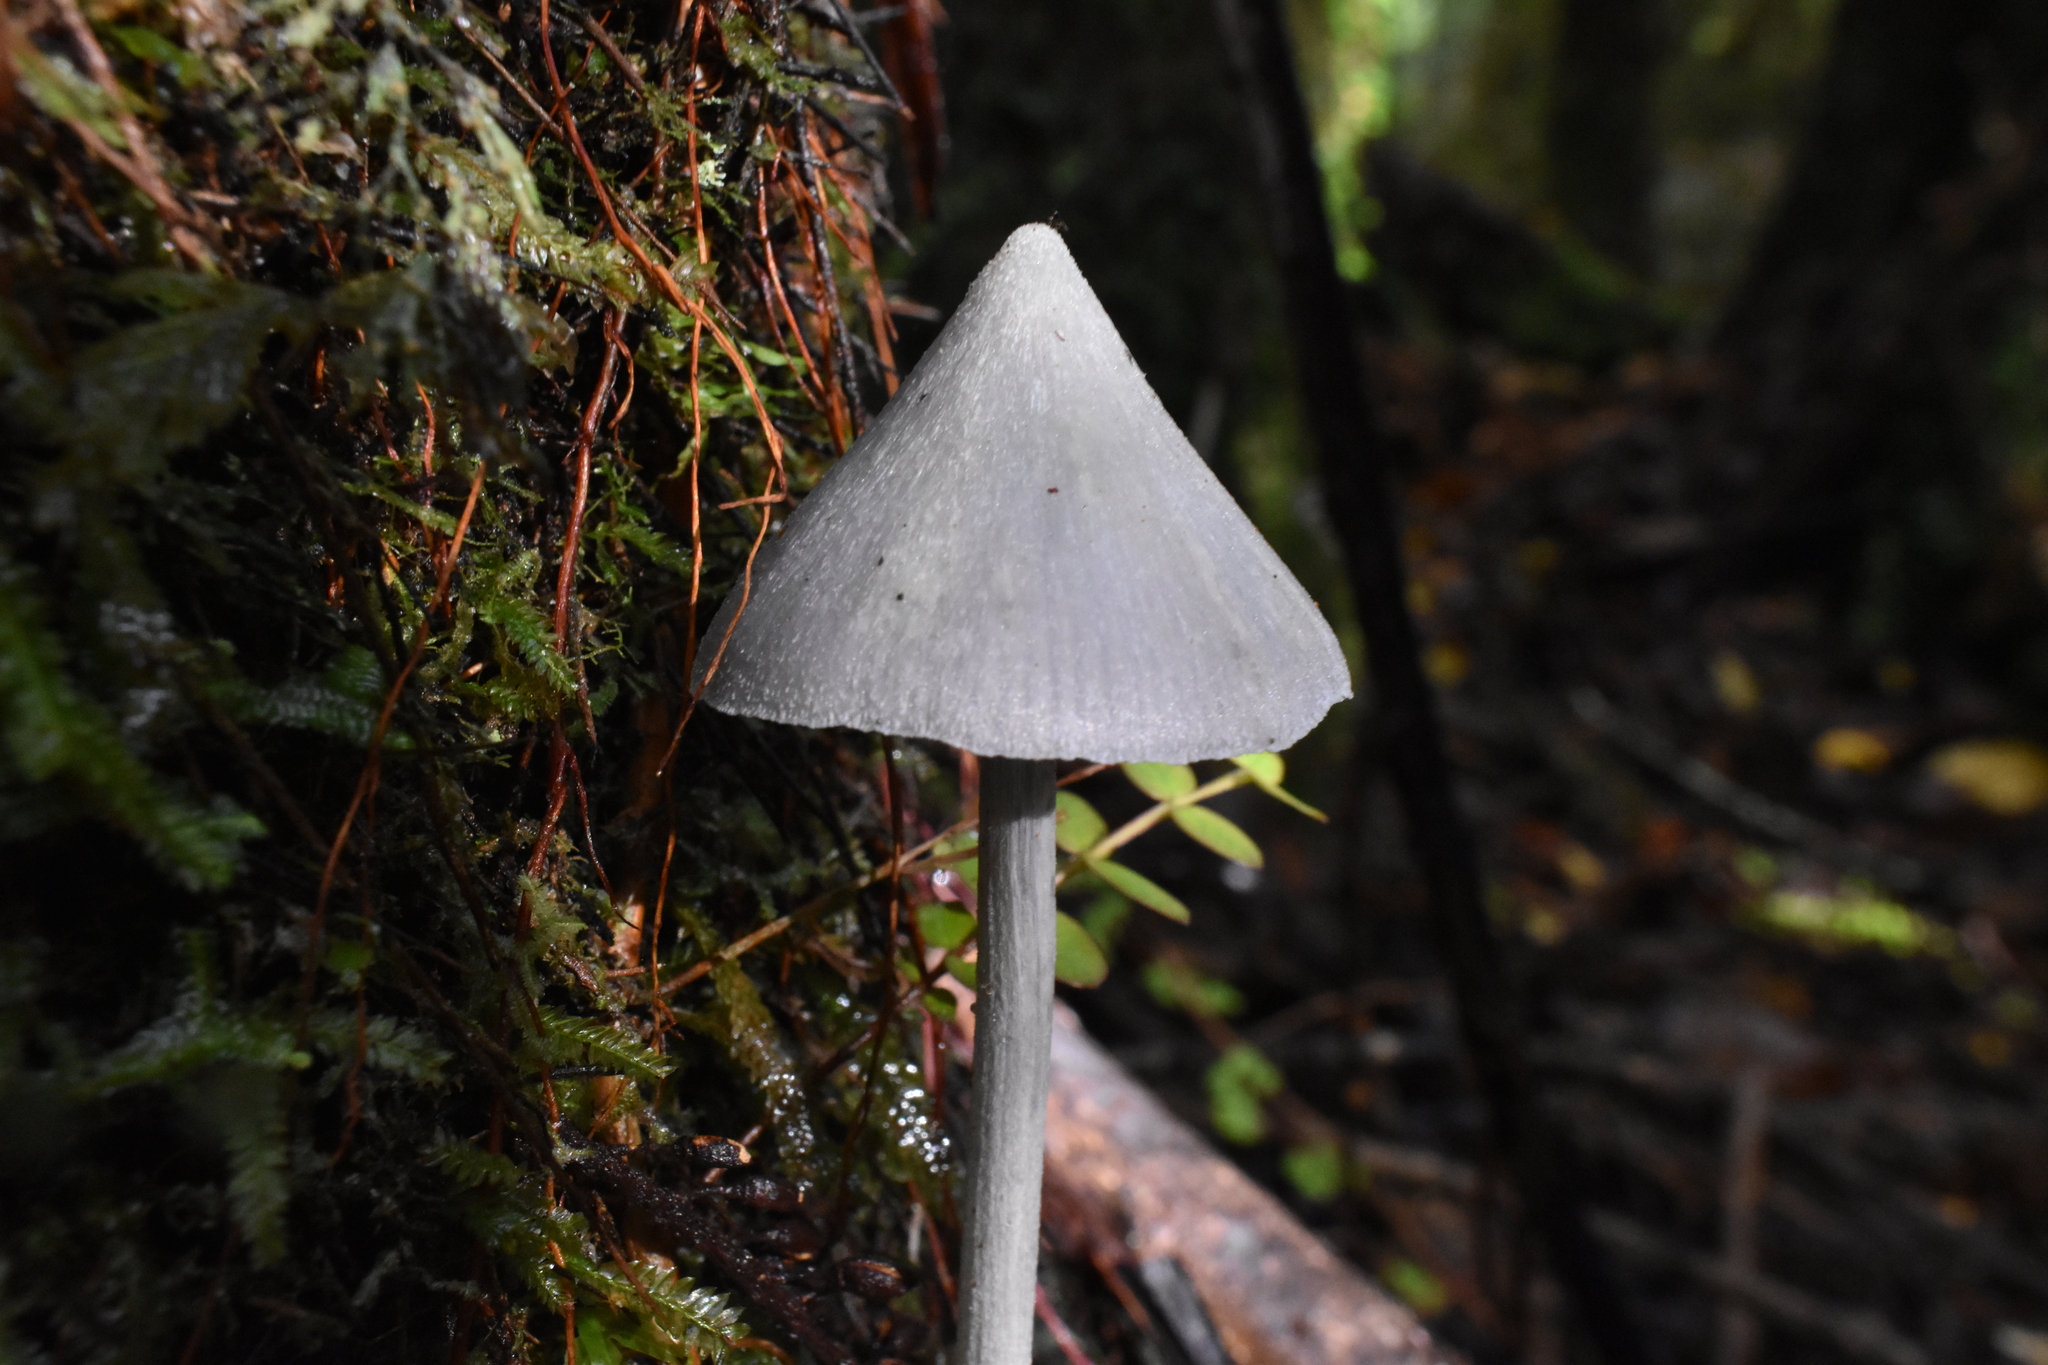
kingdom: Fungi
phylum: Basidiomycota
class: Agaricomycetes
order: Agaricales
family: Entolomataceae
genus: Entoloma
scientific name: Entoloma canoconicum
